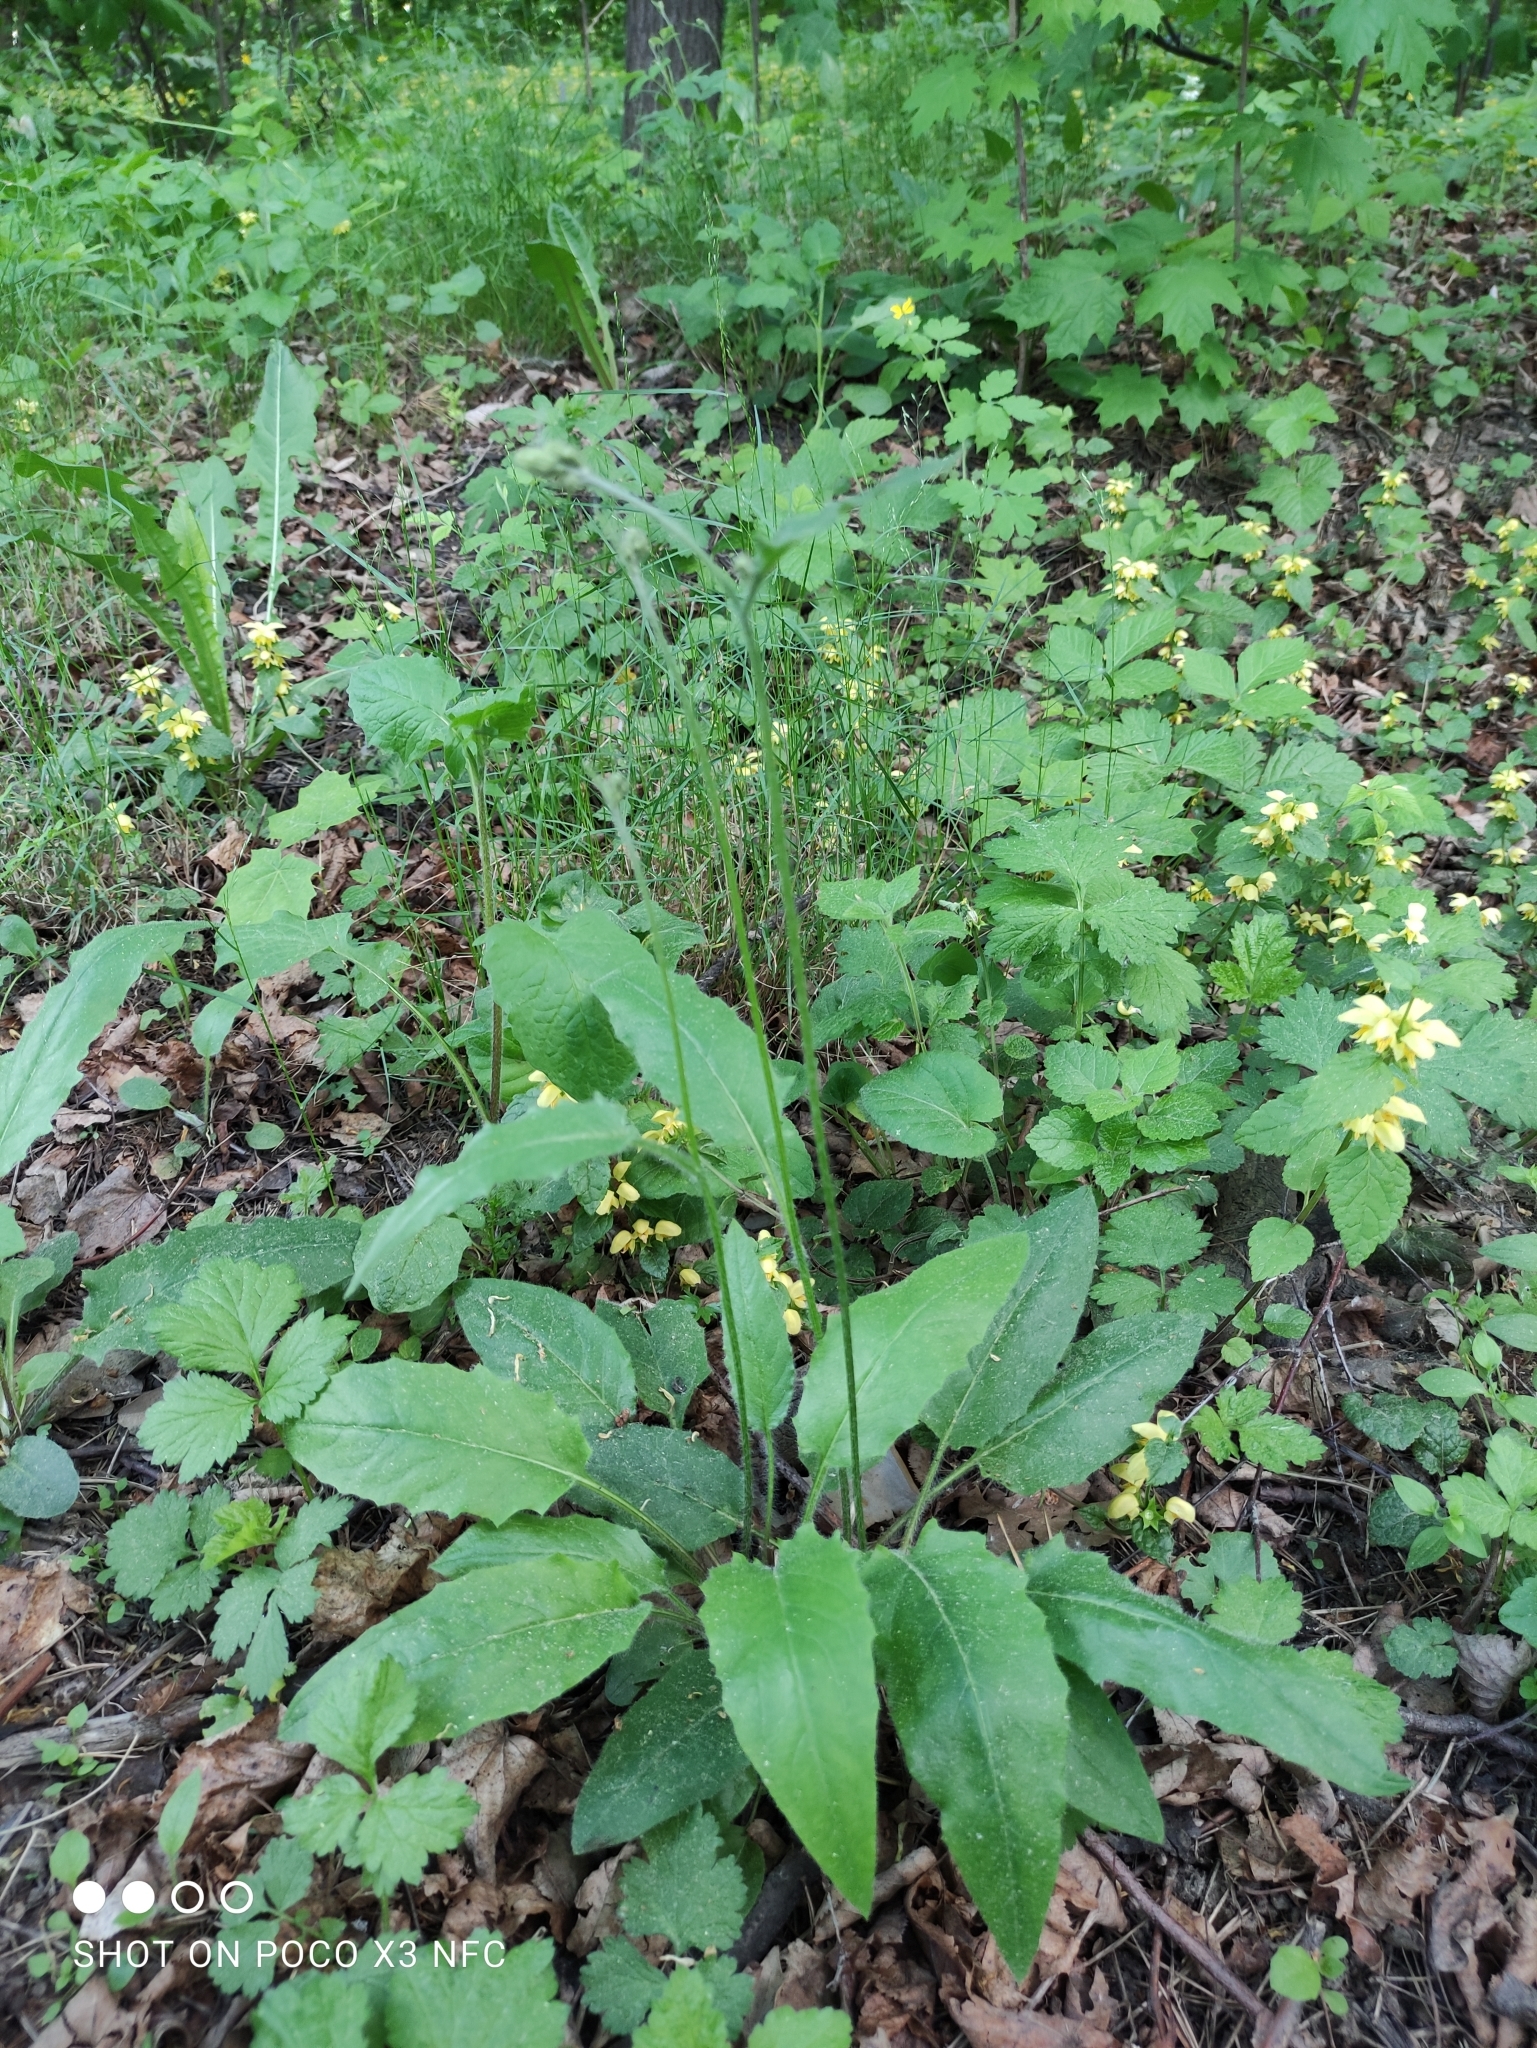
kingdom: Plantae
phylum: Tracheophyta
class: Magnoliopsida
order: Asterales
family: Asteraceae
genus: Hieracium
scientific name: Hieracium murorum
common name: Wall hawkweed
